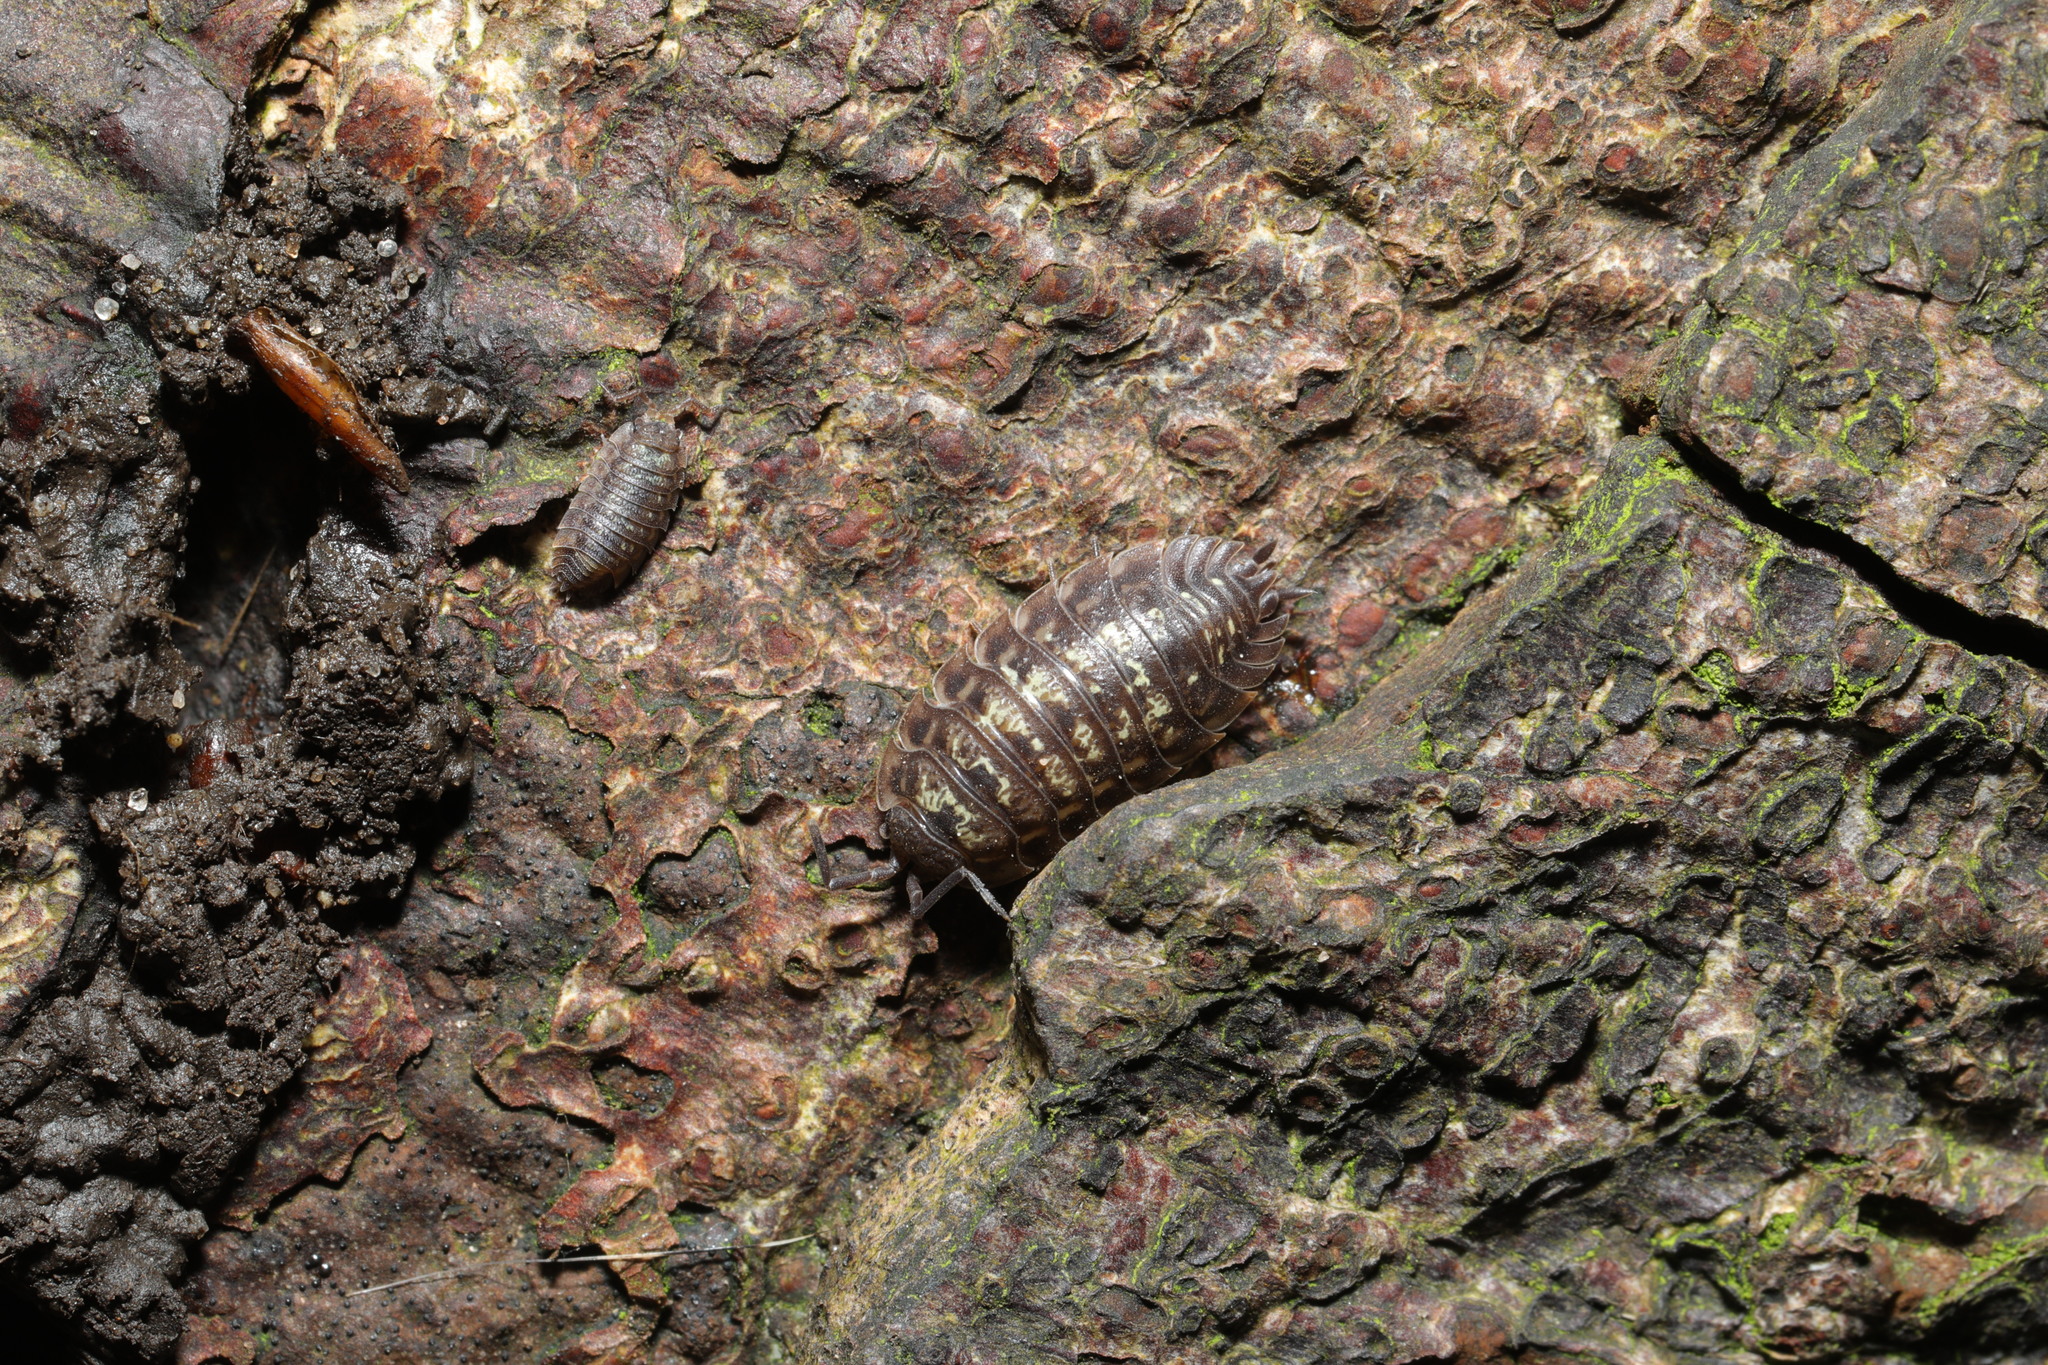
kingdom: Animalia
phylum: Arthropoda
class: Malacostraca
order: Isopoda
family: Oniscidae
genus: Oniscus
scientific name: Oniscus asellus
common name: Common shiny woodlouse
